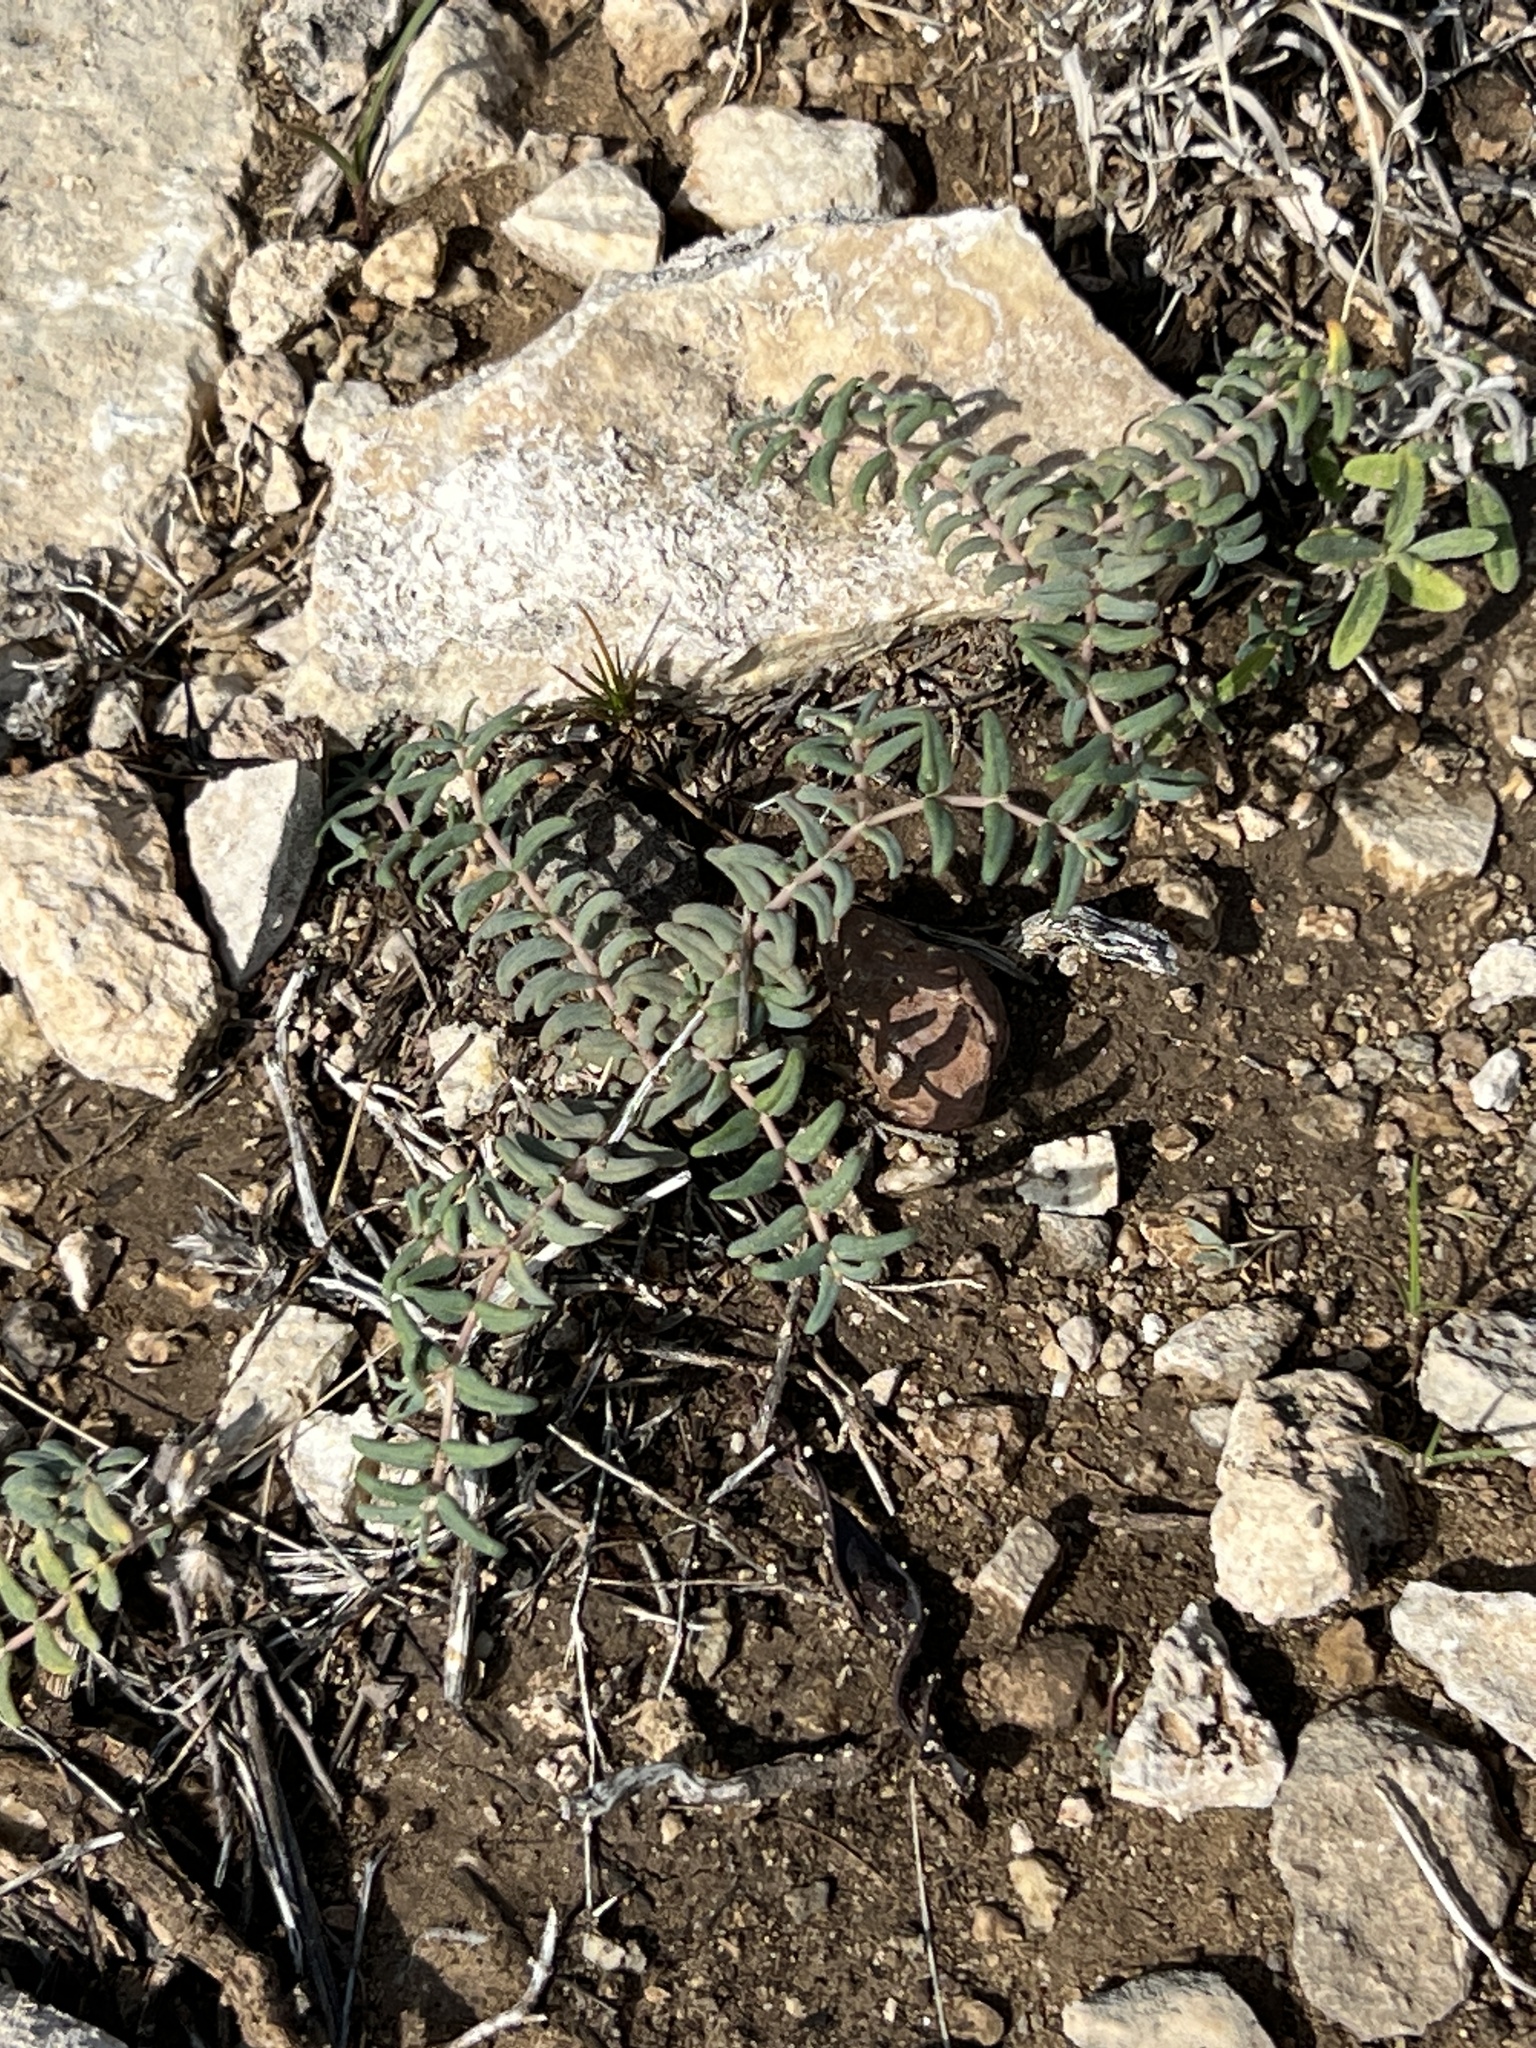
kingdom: Plantae
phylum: Tracheophyta
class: Magnoliopsida
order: Malpighiales
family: Euphorbiaceae
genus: Euphorbia
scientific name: Euphorbia lata
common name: Hoary euphorbia
